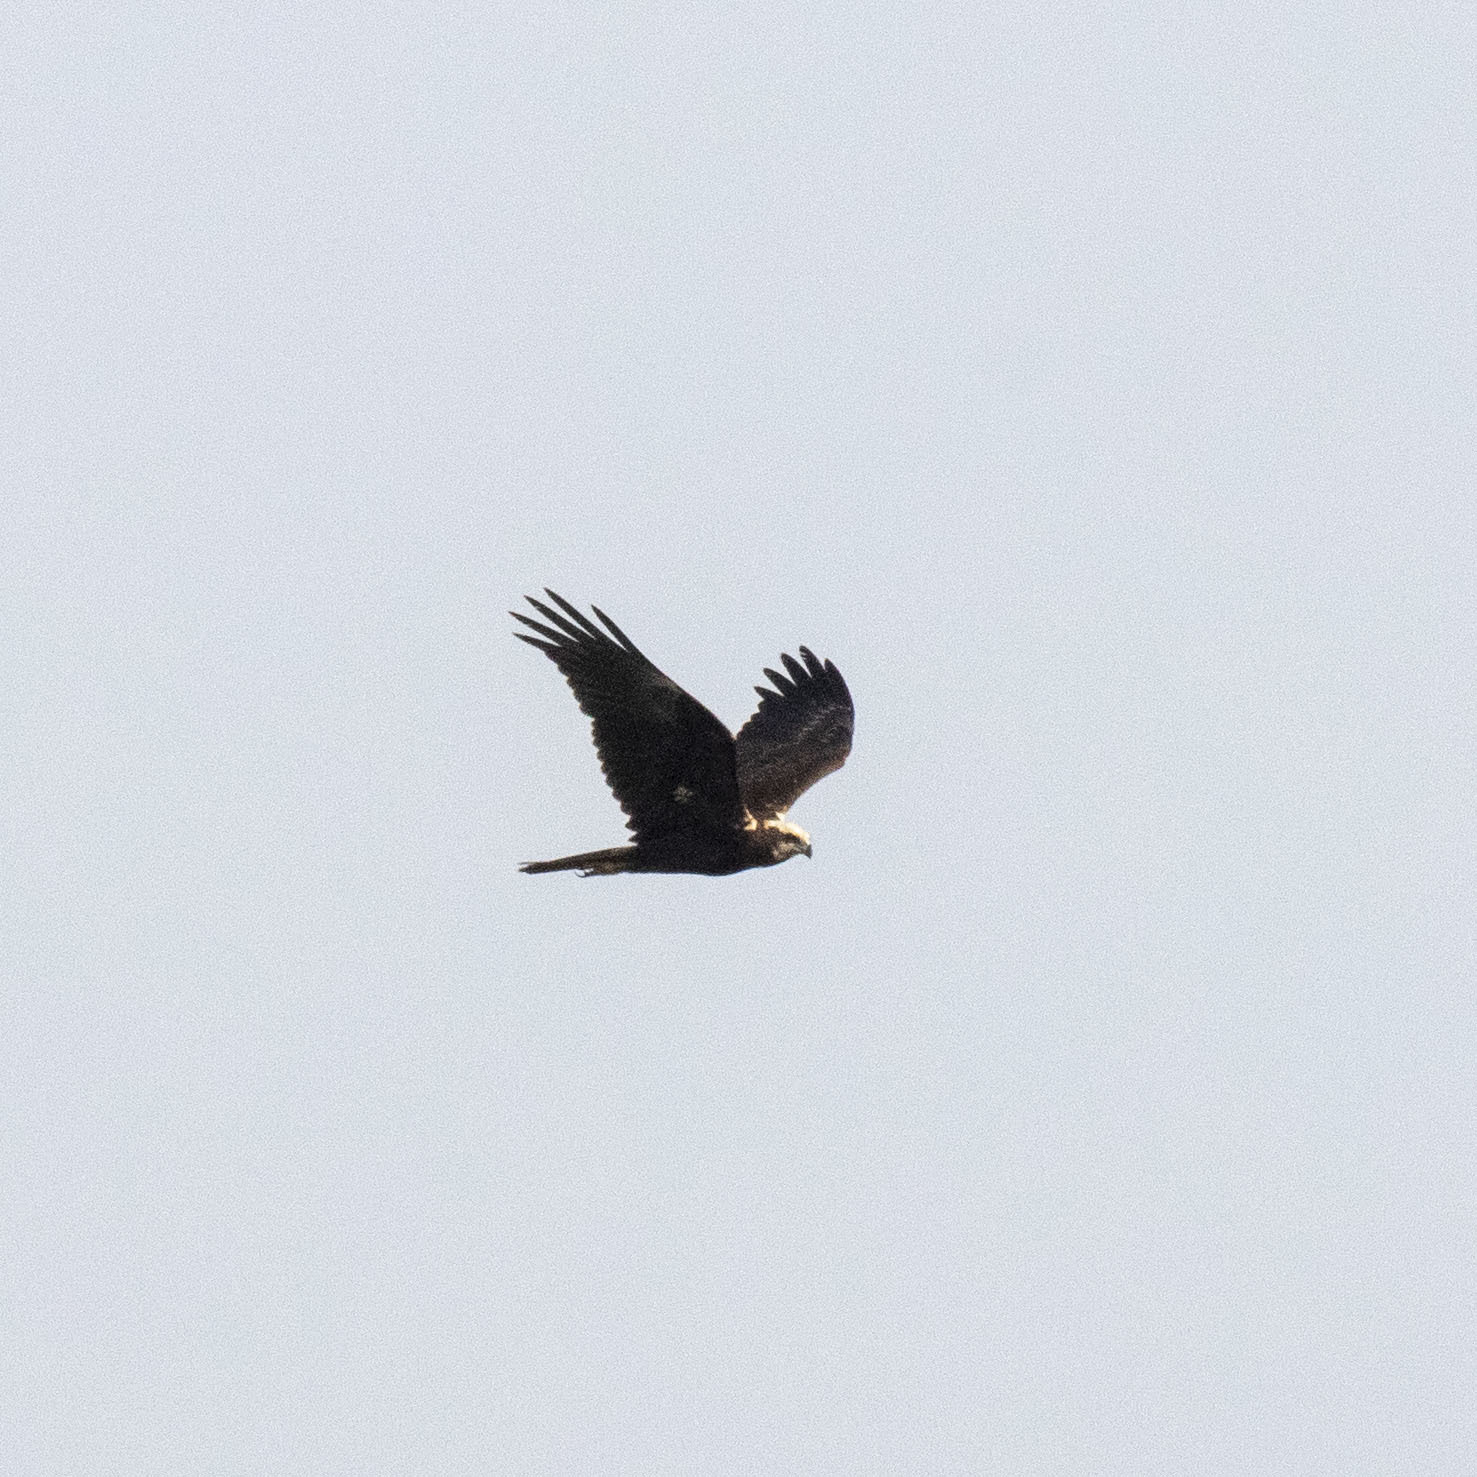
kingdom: Animalia
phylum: Chordata
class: Aves
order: Accipitriformes
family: Accipitridae
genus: Circus
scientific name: Circus aeruginosus
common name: Western marsh harrier
